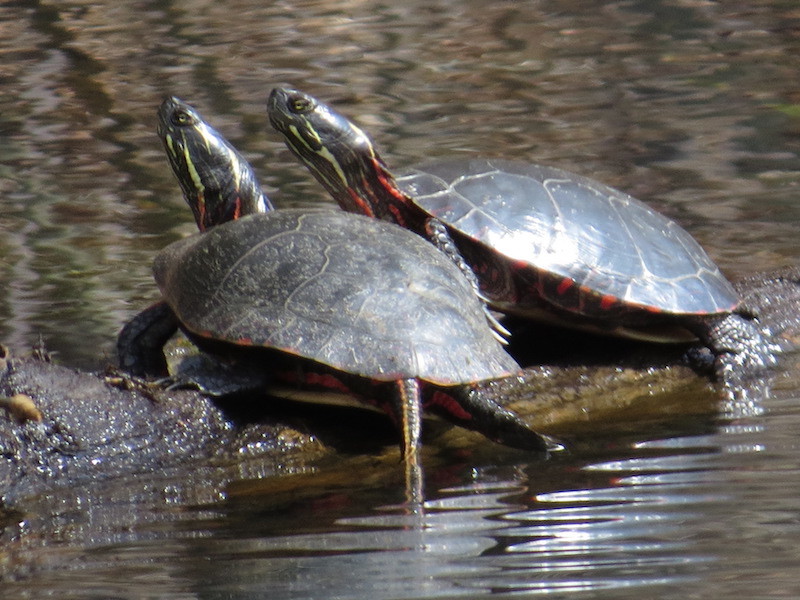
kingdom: Animalia
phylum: Chordata
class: Testudines
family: Emydidae
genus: Chrysemys
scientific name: Chrysemys picta
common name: Painted turtle
